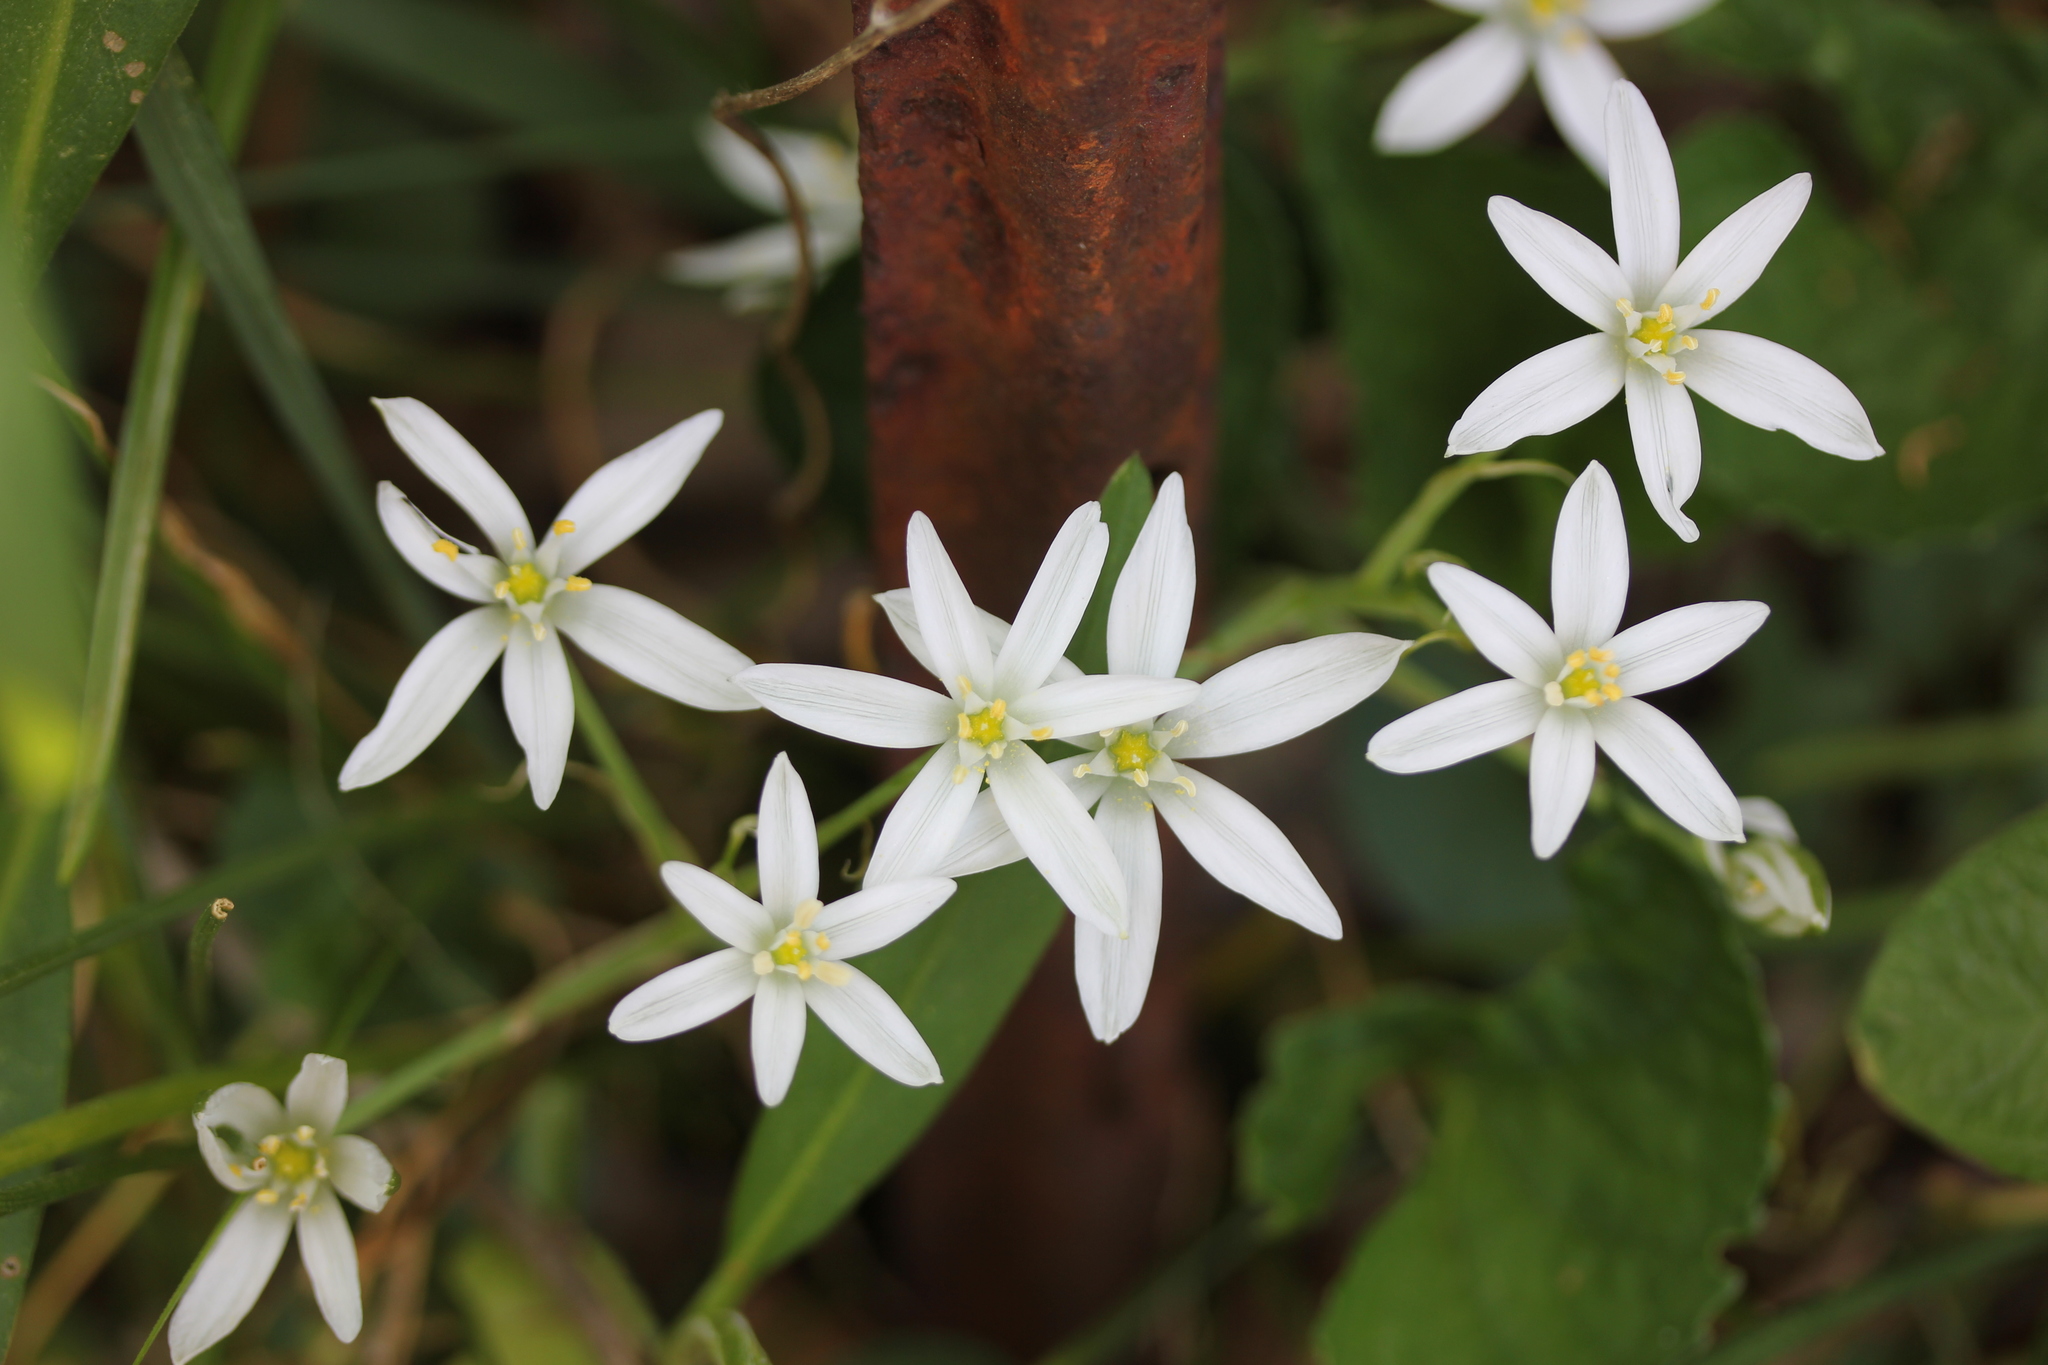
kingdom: Plantae
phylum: Tracheophyta
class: Liliopsida
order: Asparagales
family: Asparagaceae
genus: Ornithogalum
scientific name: Ornithogalum umbellatum
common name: Garden star-of-bethlehem
